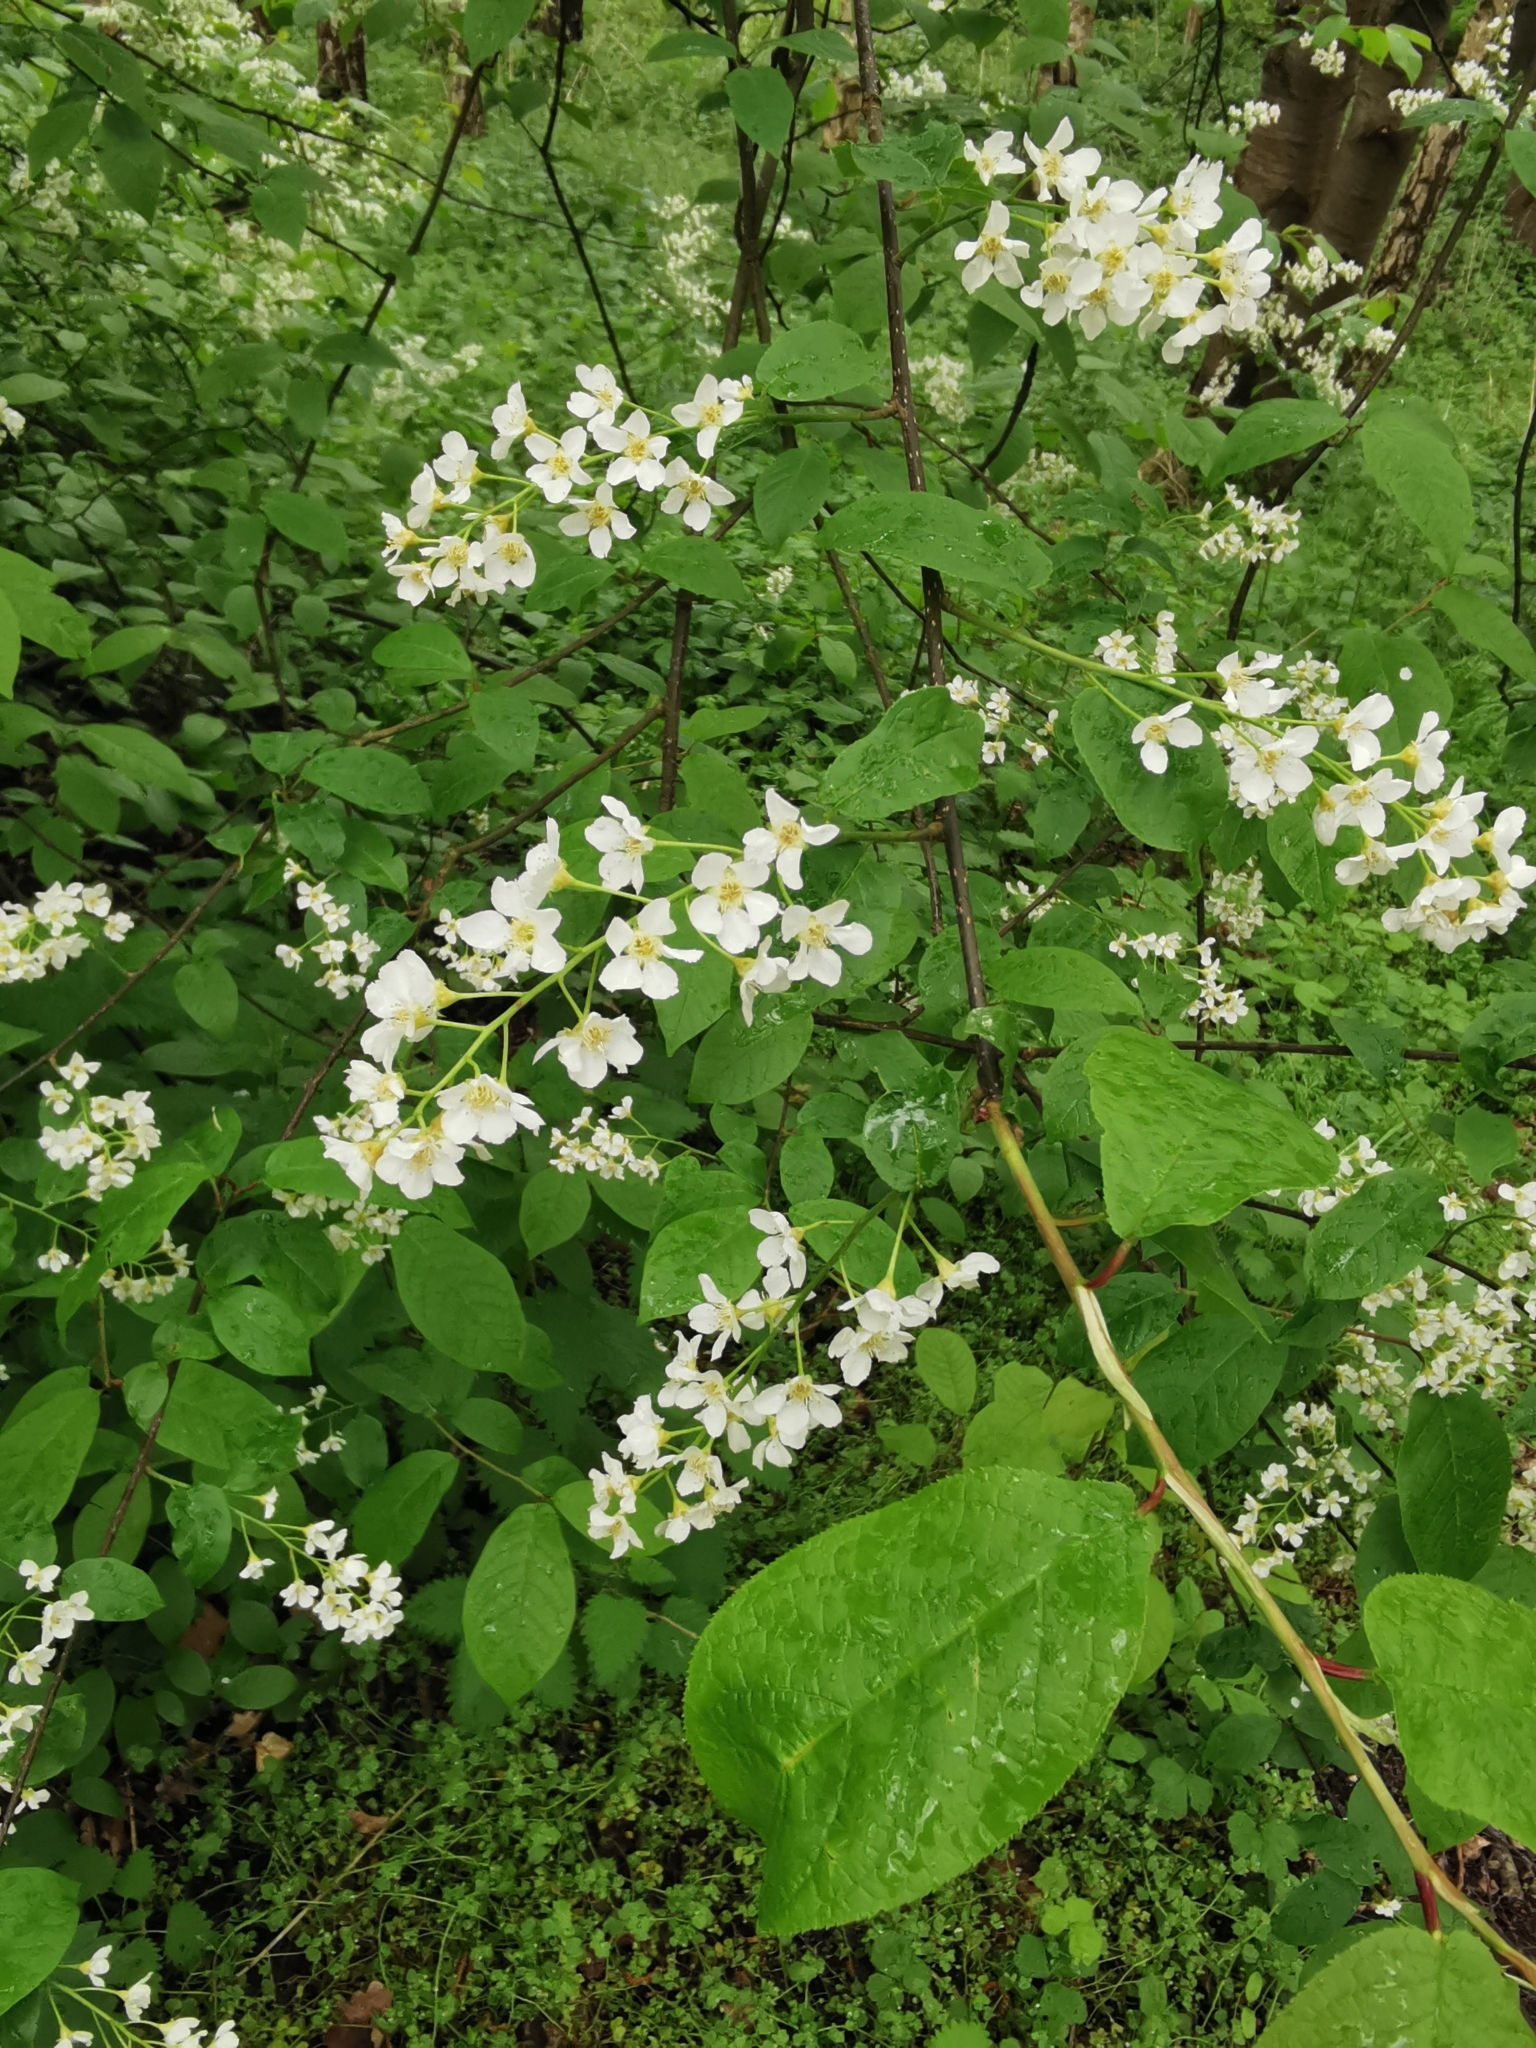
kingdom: Plantae
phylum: Tracheophyta
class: Magnoliopsida
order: Rosales
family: Rosaceae
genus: Prunus
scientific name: Prunus padus
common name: Bird cherry
